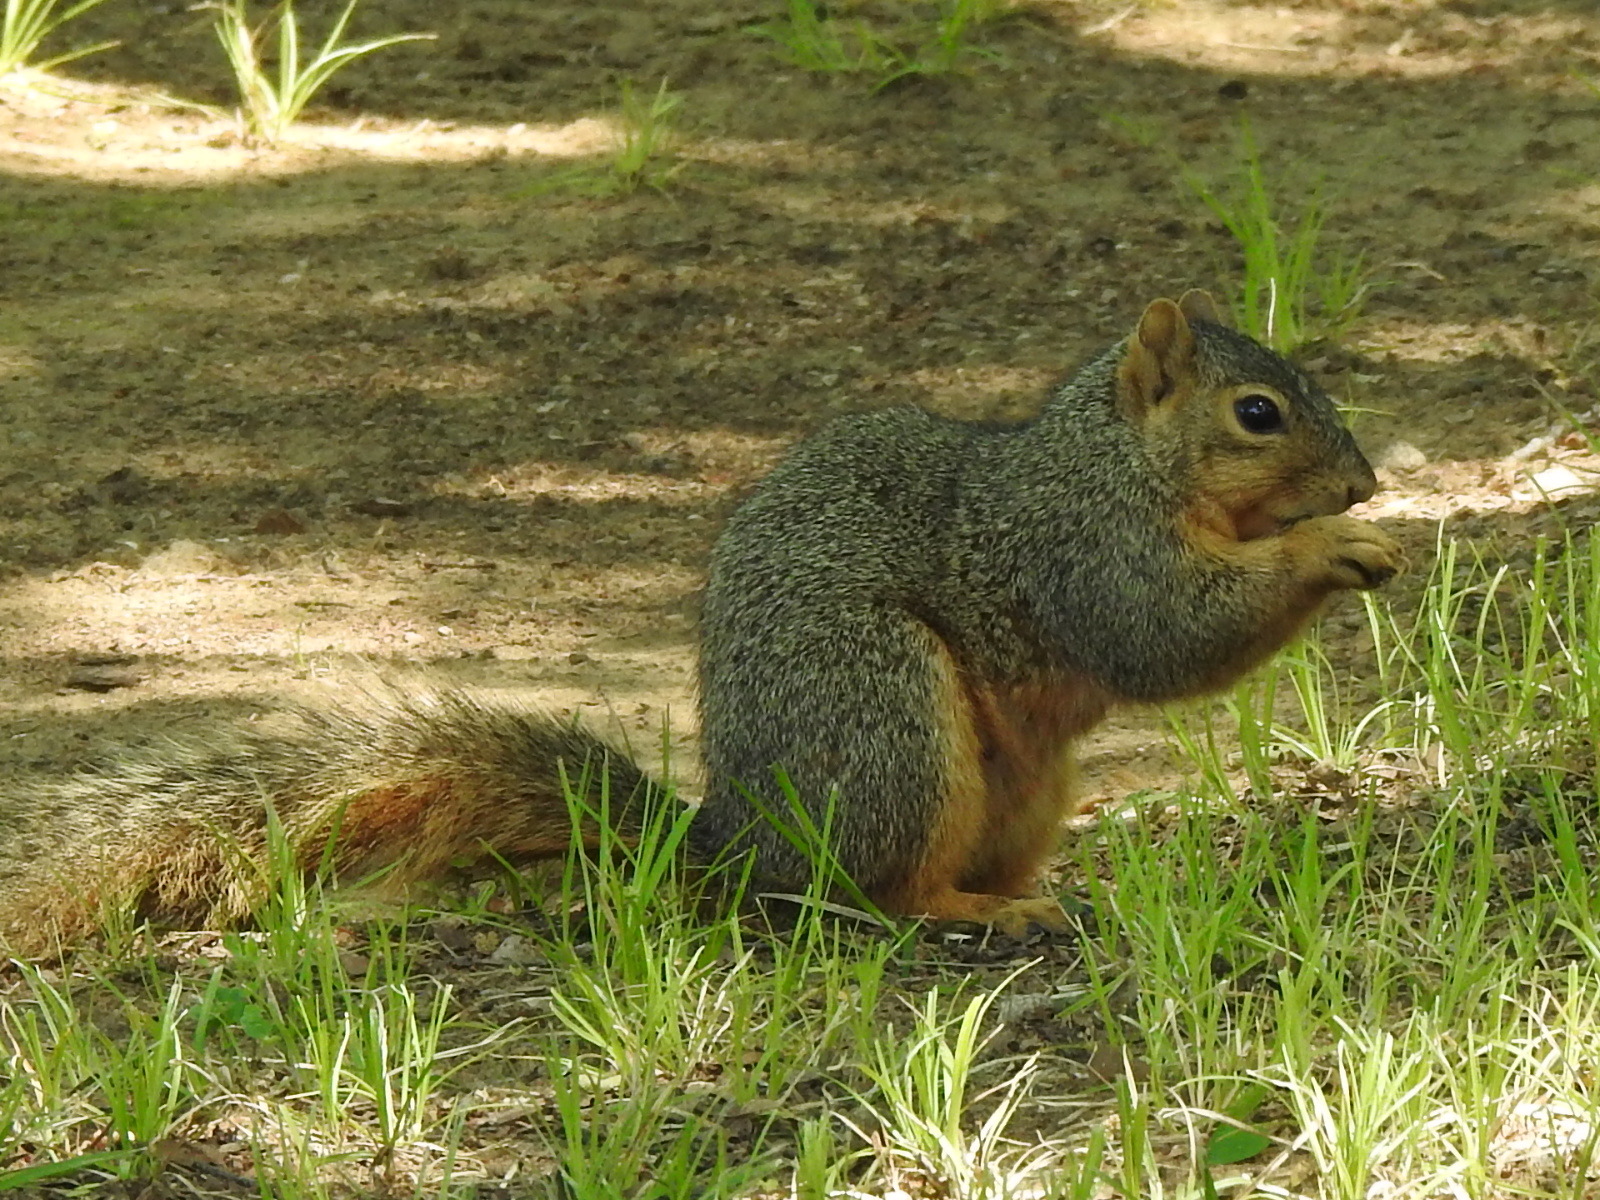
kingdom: Animalia
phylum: Chordata
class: Mammalia
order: Rodentia
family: Sciuridae
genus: Sciurus
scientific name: Sciurus niger
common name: Fox squirrel
